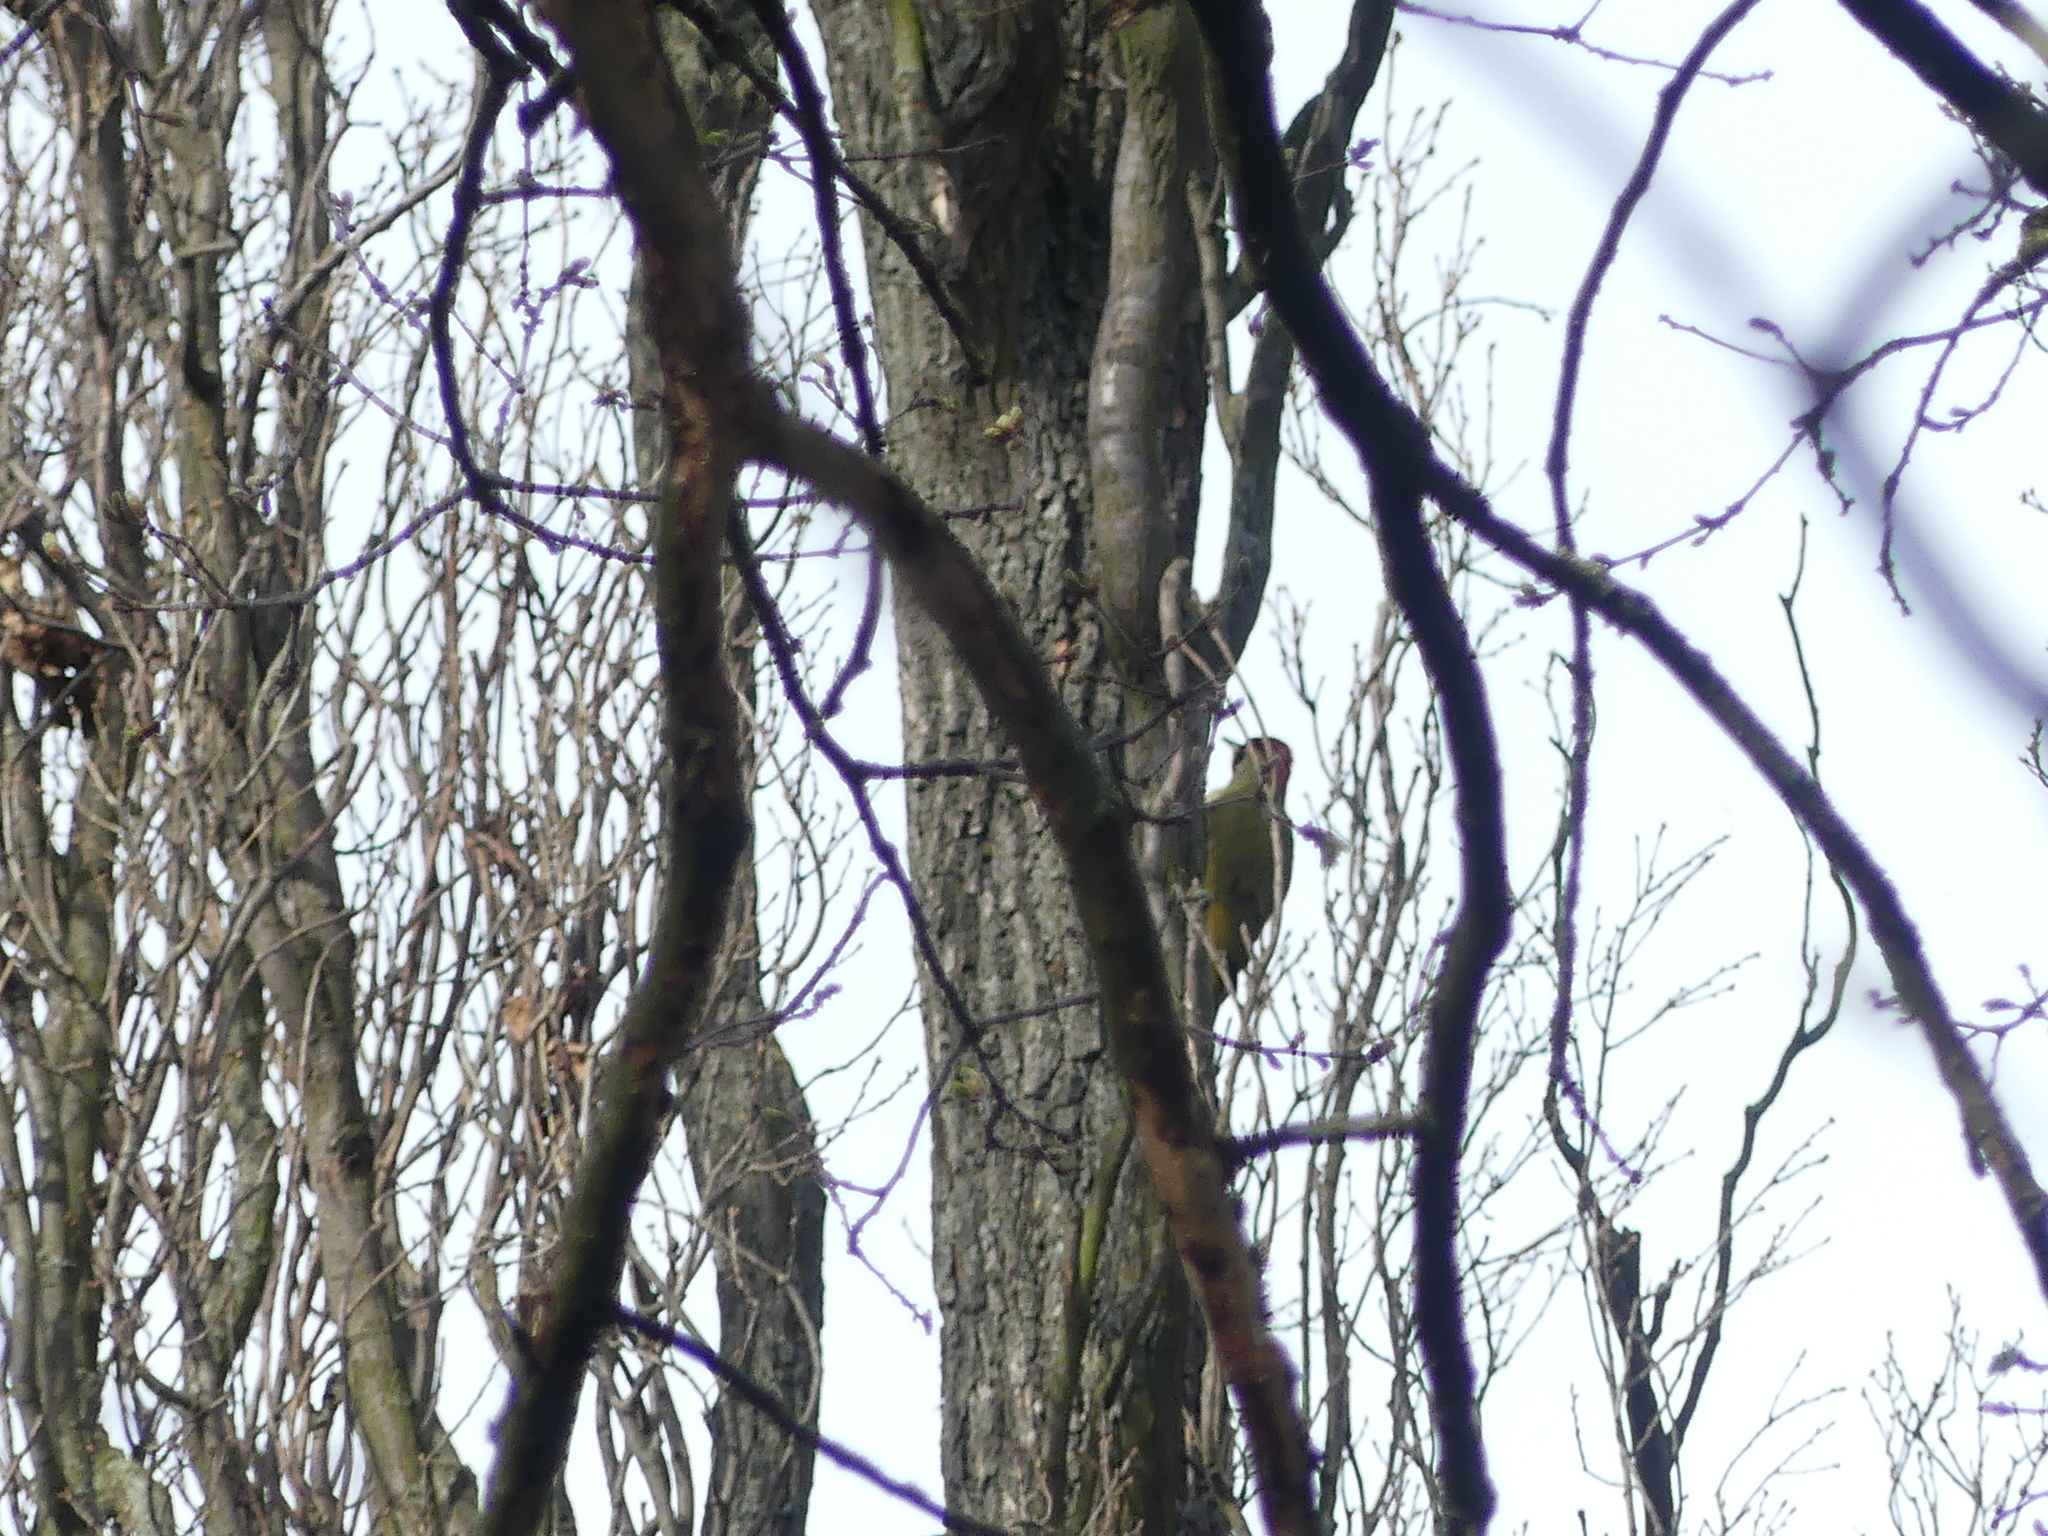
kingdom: Animalia
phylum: Chordata
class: Aves
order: Piciformes
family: Picidae
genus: Picus
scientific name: Picus viridis
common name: European green woodpecker
